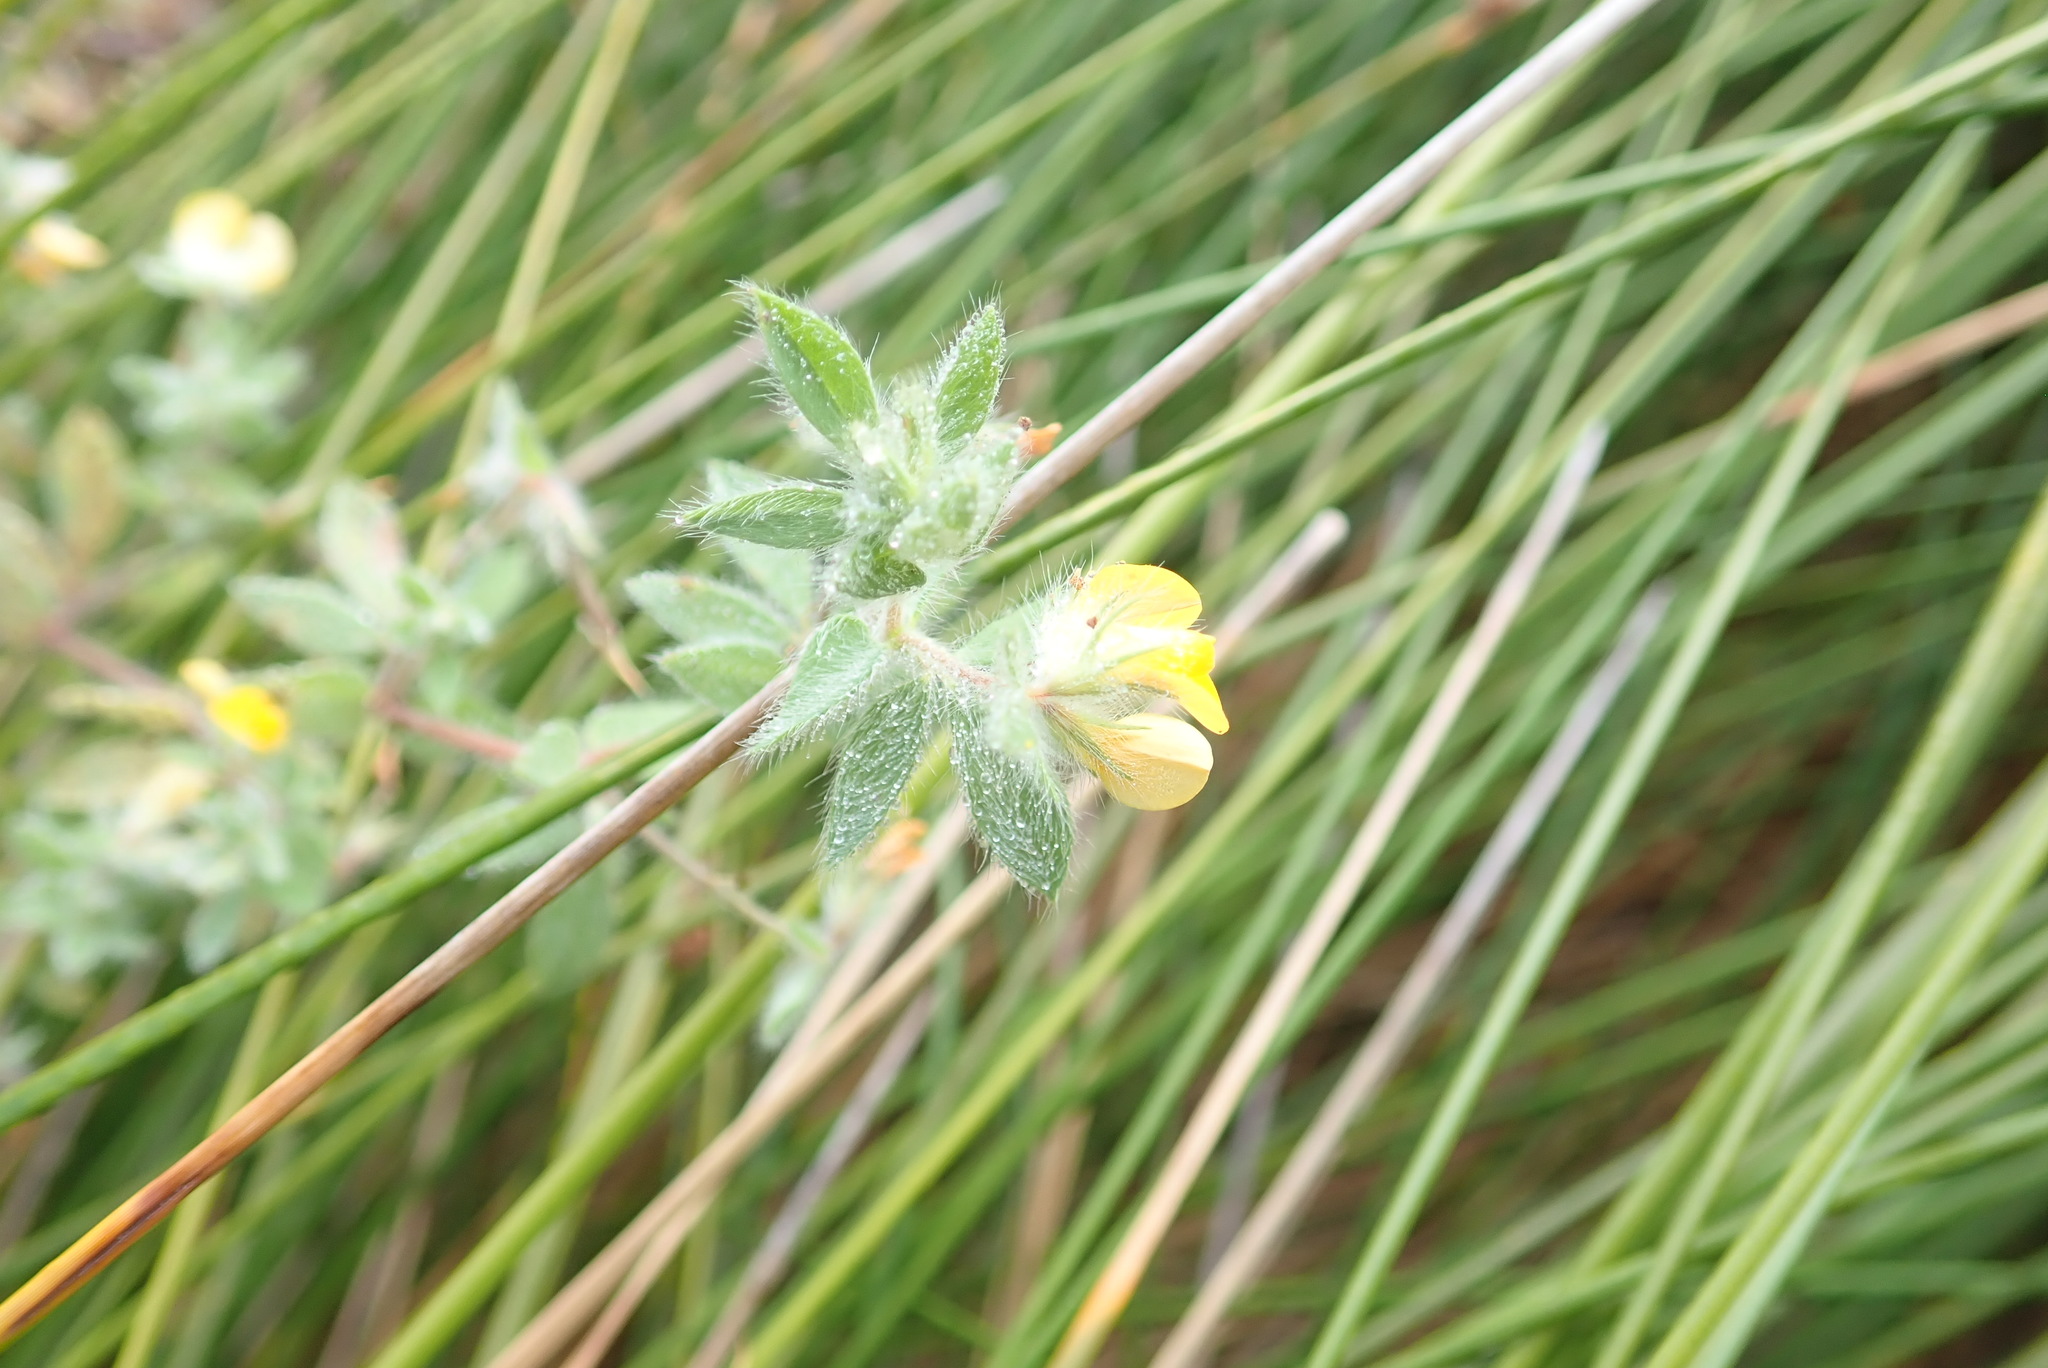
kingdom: Plantae
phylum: Tracheophyta
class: Magnoliopsida
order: Fabales
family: Fabaceae
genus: Lotus
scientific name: Lotus subbiflorus
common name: Hairy bird's-foot trefoil
